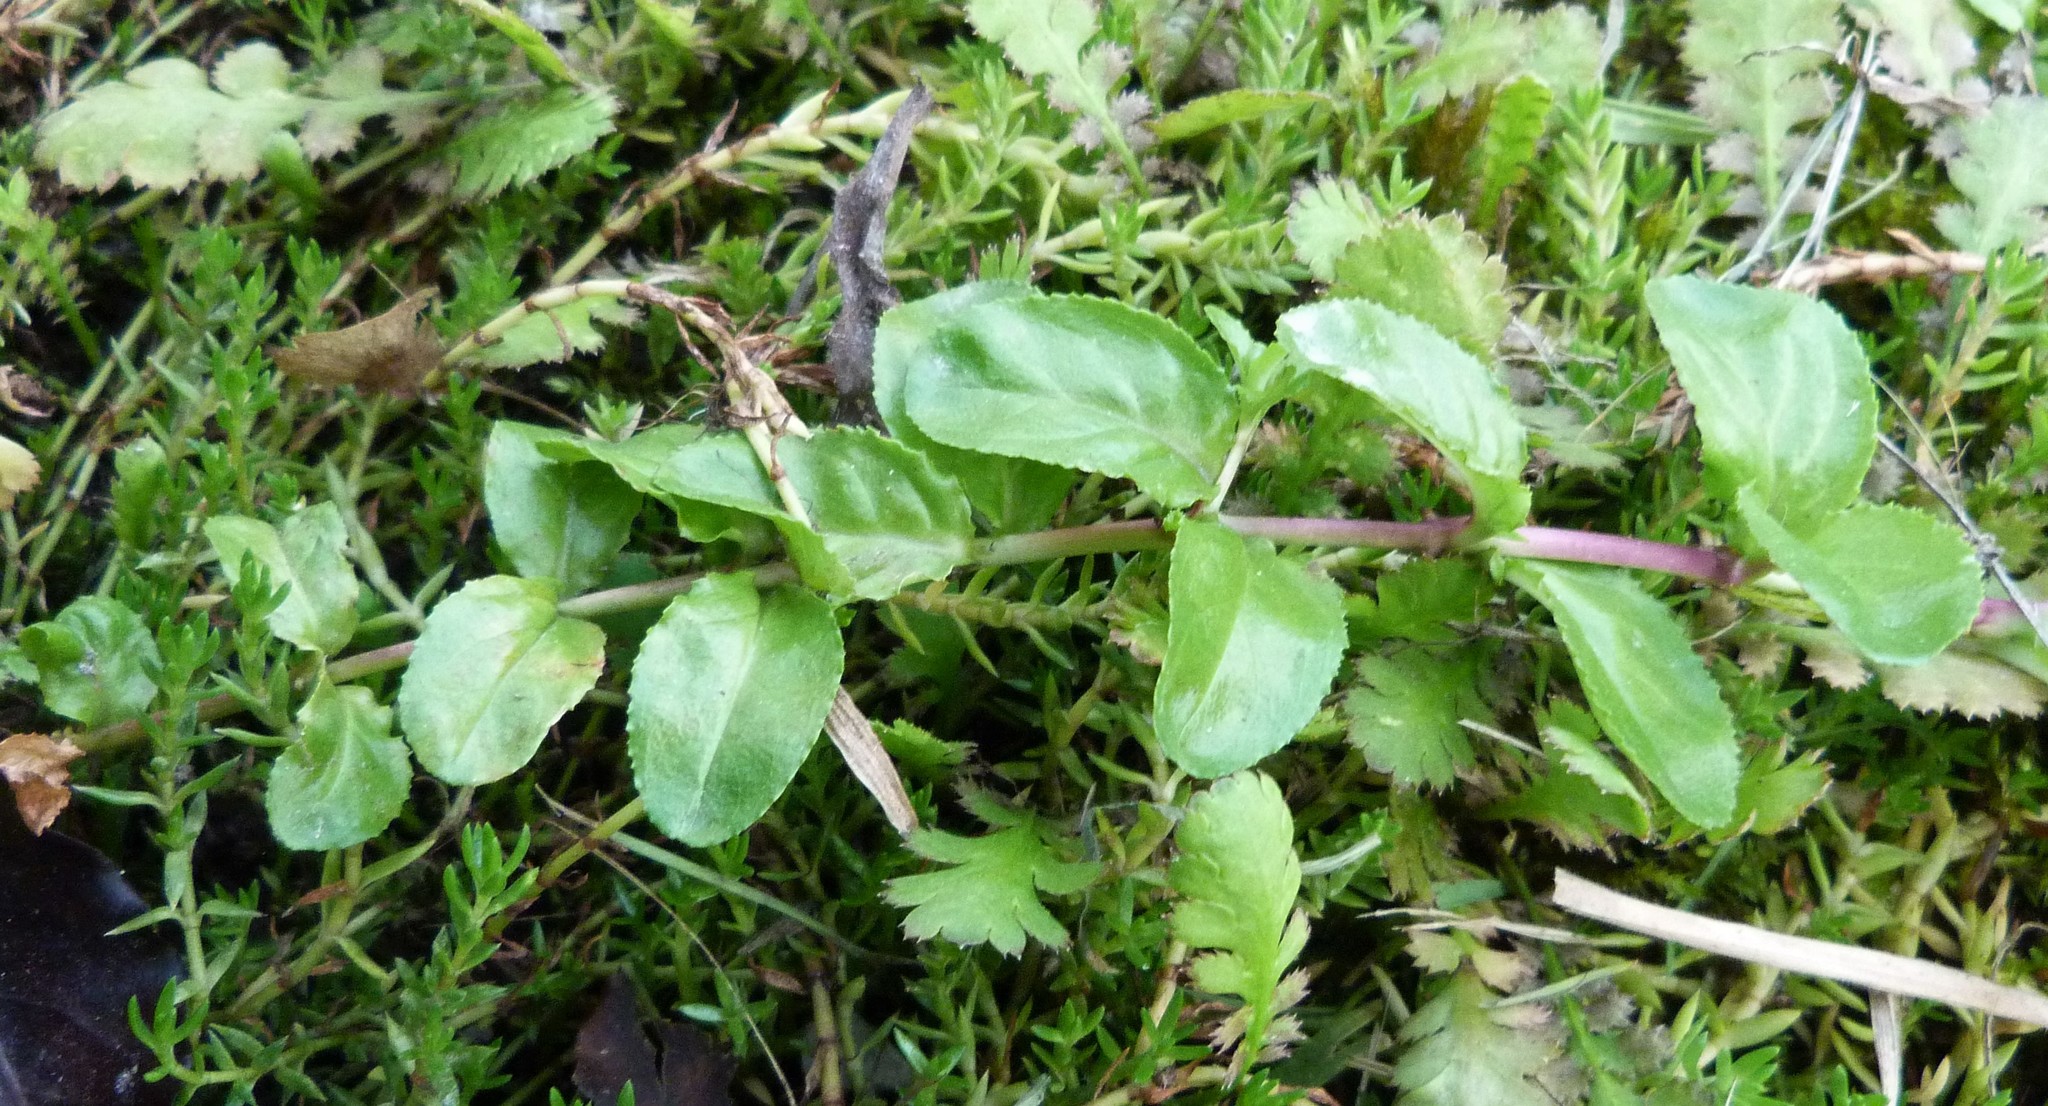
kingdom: Plantae
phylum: Tracheophyta
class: Magnoliopsida
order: Myrtales
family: Onagraceae
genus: Epilobium
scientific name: Epilobium billardiereanum
